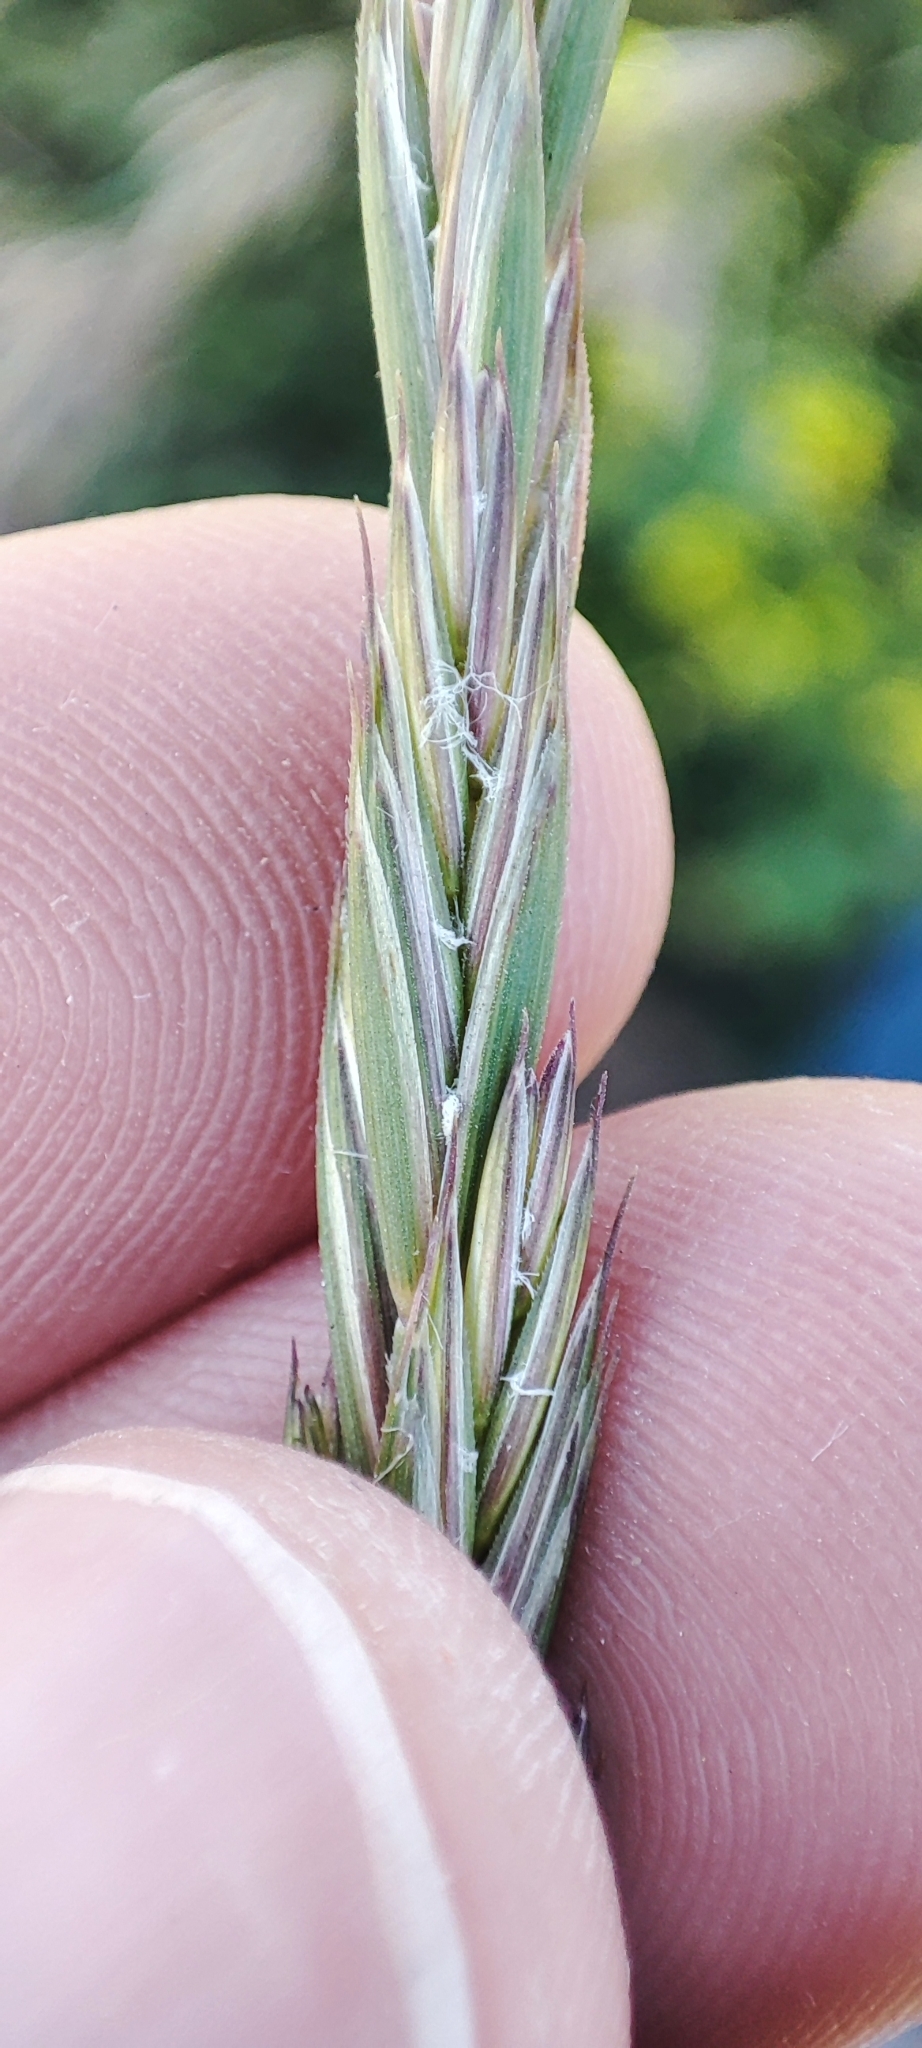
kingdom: Plantae
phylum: Tracheophyta
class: Liliopsida
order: Poales
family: Poaceae
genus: Elymus
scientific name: Elymus repens
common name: Quackgrass
